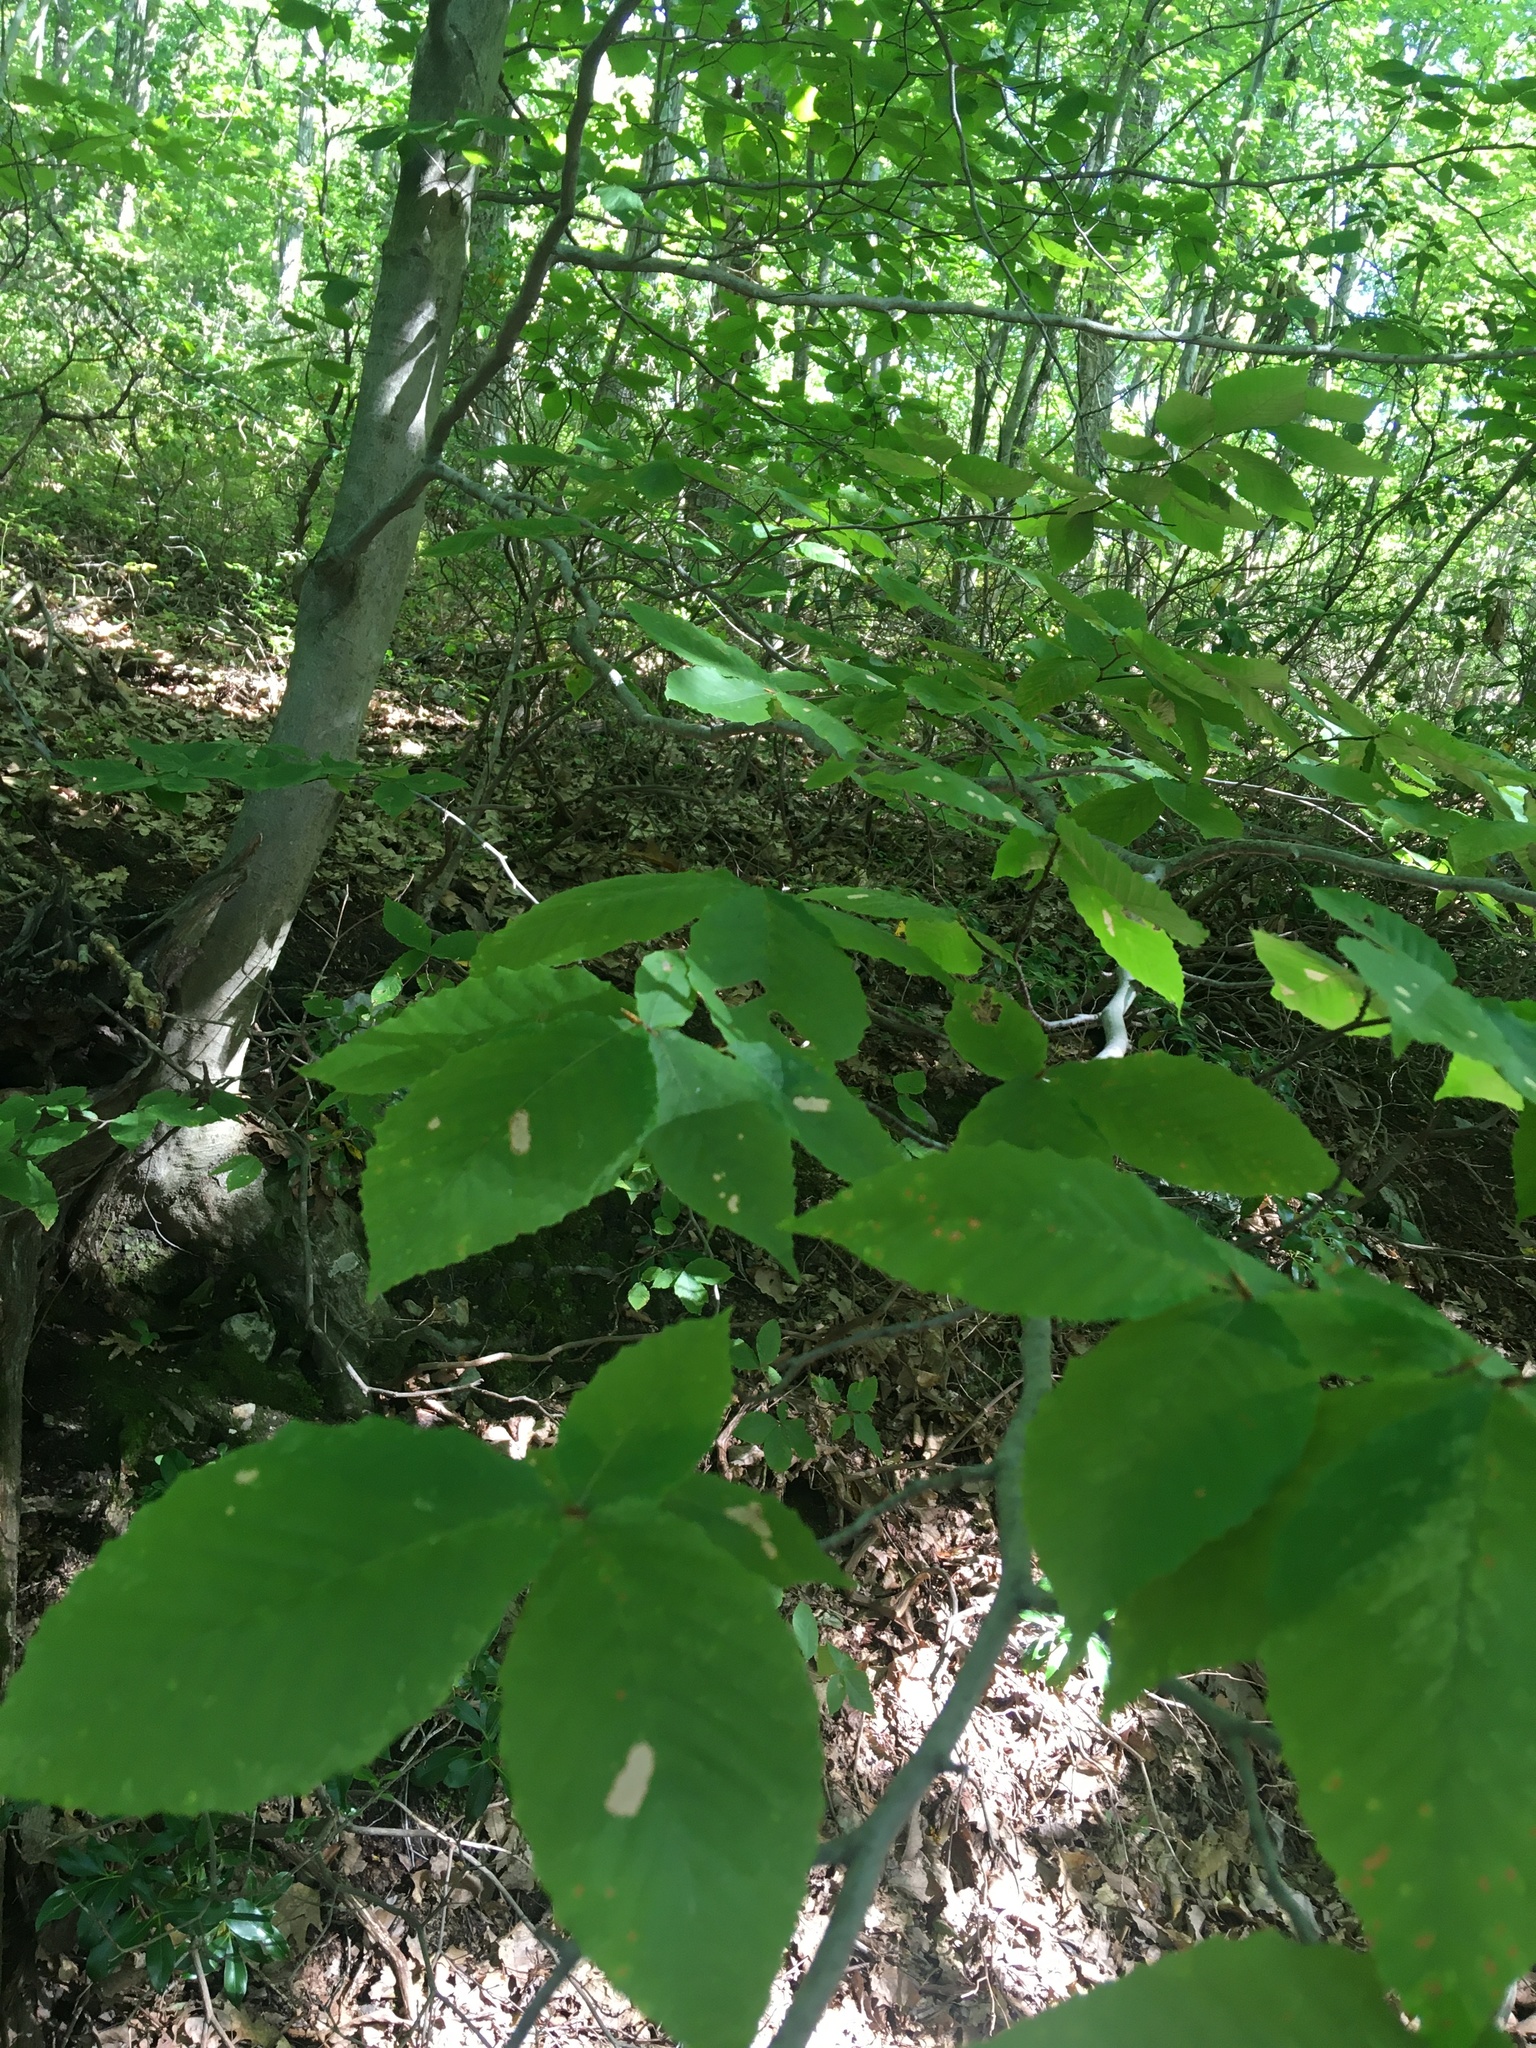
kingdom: Plantae
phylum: Tracheophyta
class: Magnoliopsida
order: Fagales
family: Fagaceae
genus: Fagus
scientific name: Fagus grandifolia
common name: American beech
